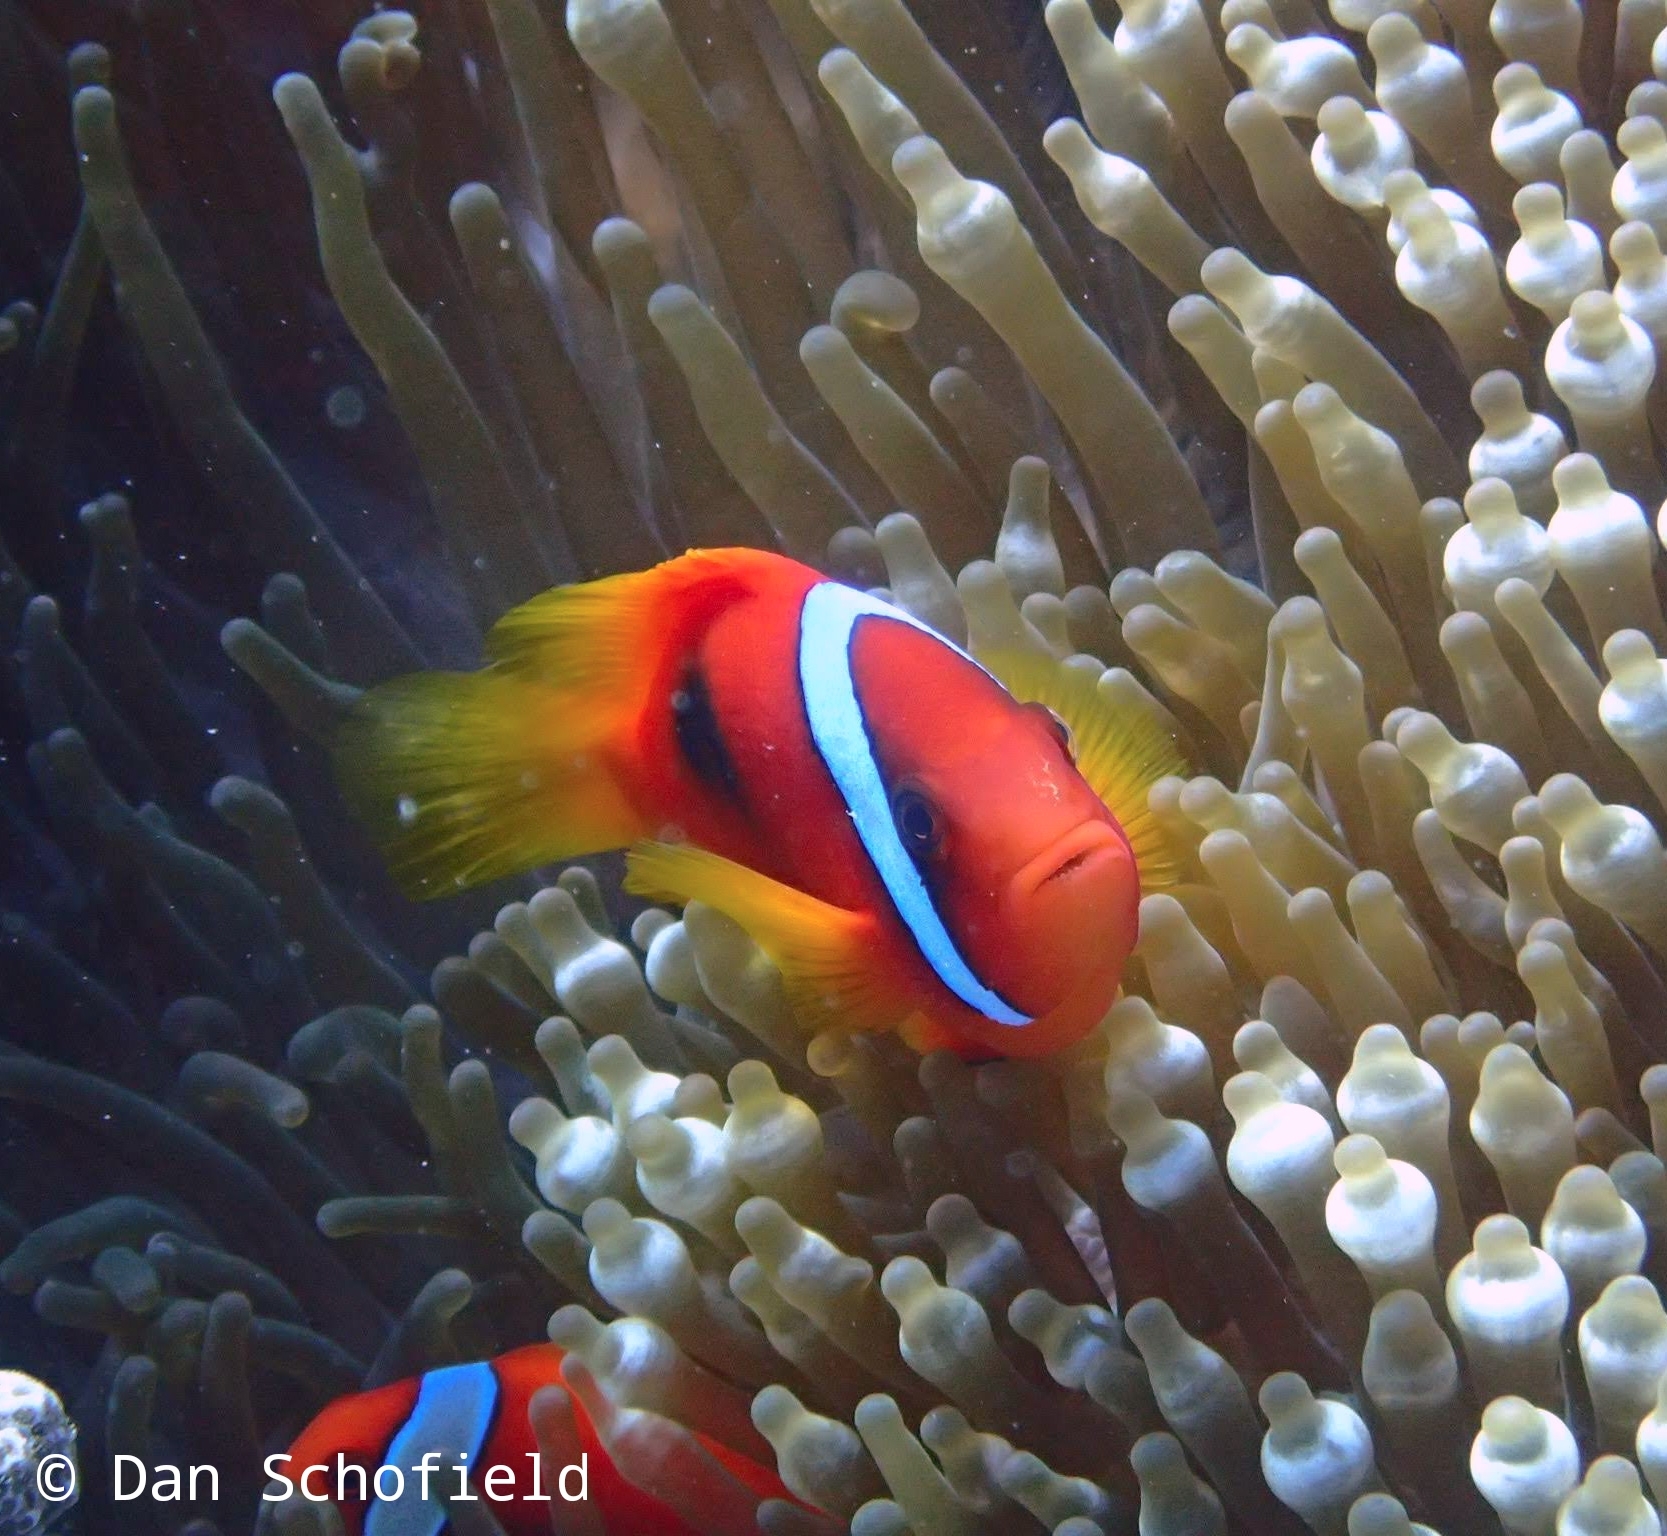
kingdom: Animalia
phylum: Chordata
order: Perciformes
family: Pomacentridae
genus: Amphiprion
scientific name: Amphiprion frenatus
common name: Tomato anemonefish
